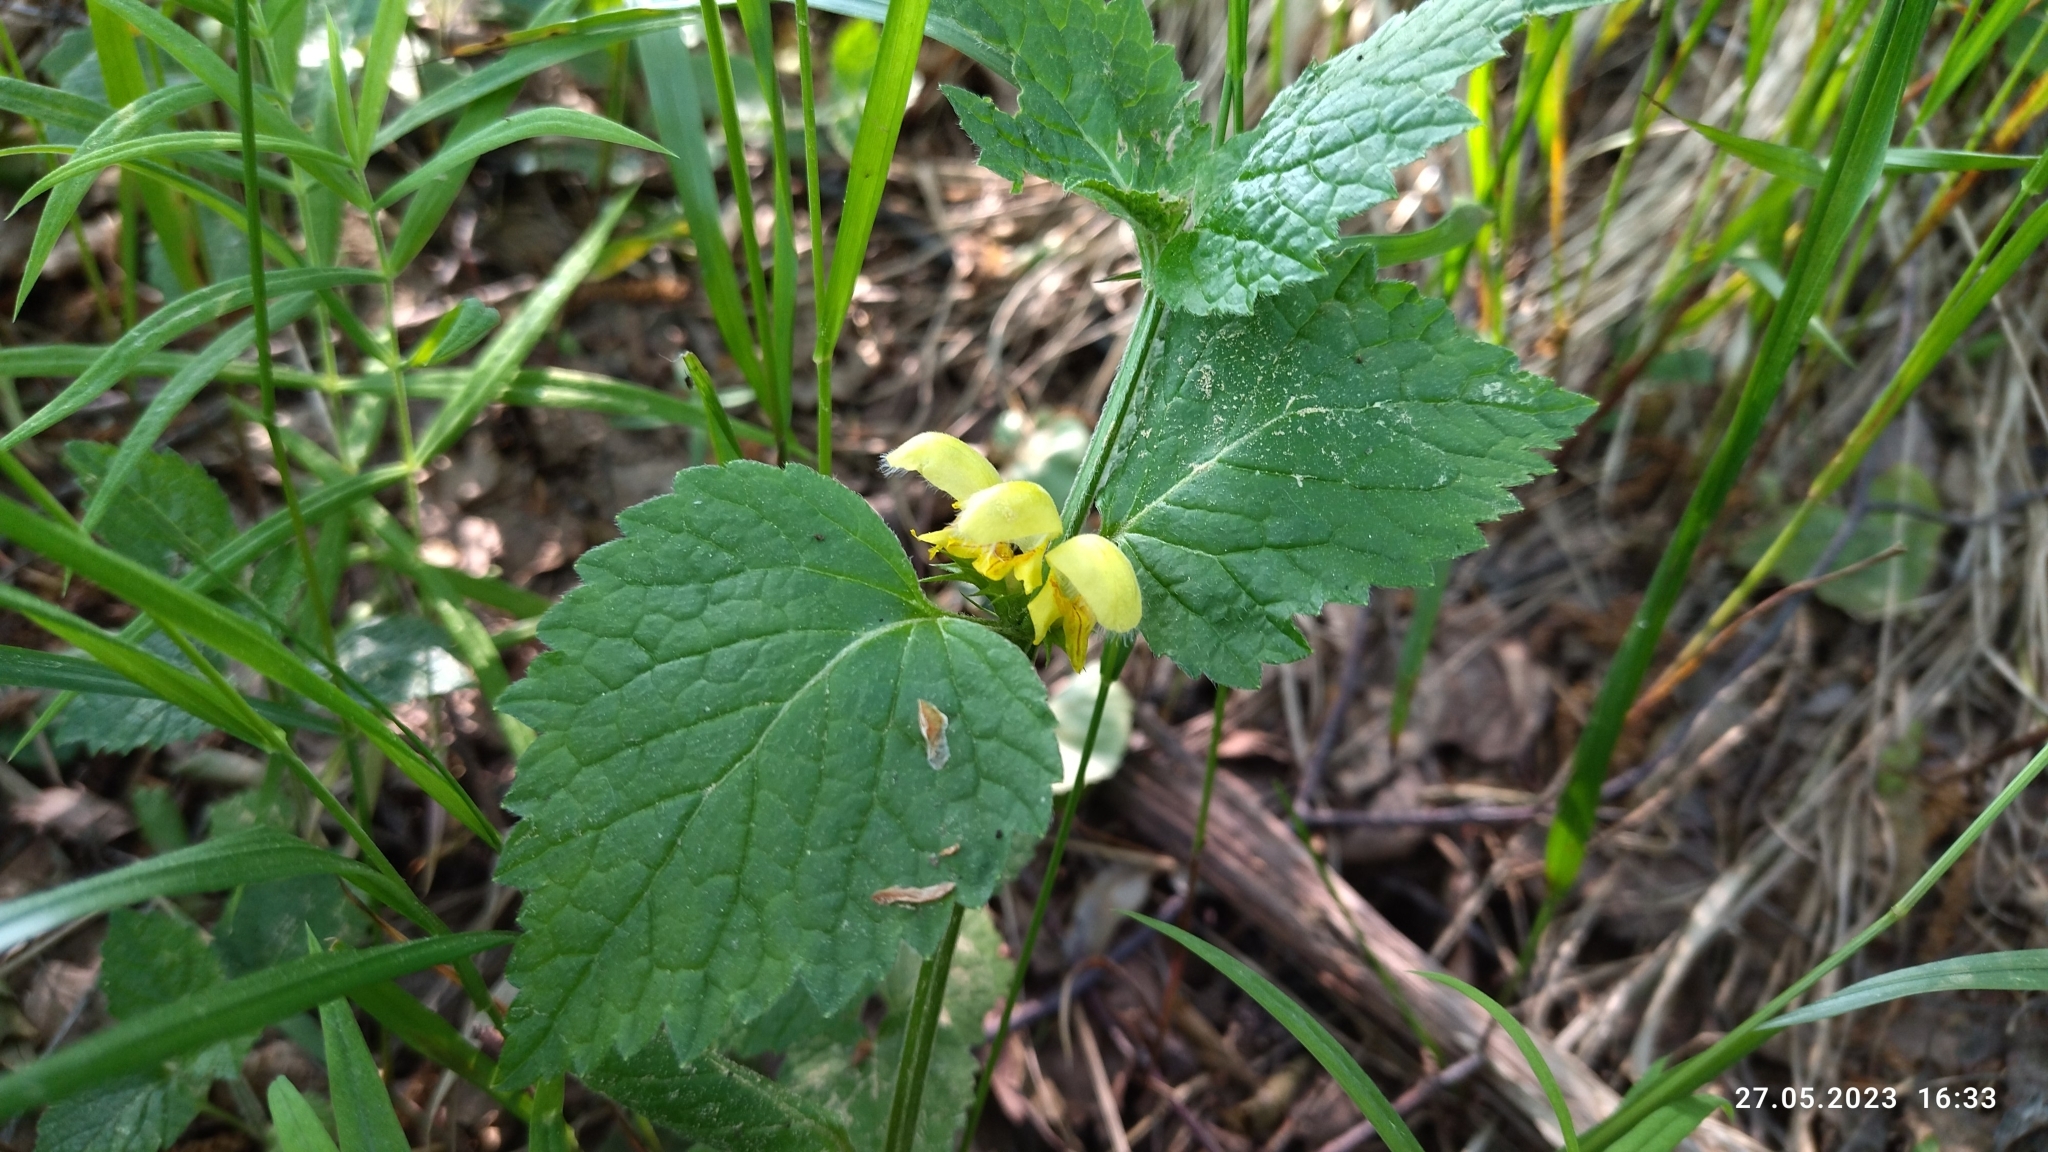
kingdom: Plantae
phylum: Tracheophyta
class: Magnoliopsida
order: Lamiales
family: Lamiaceae
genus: Lamium
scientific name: Lamium galeobdolon
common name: Yellow archangel
